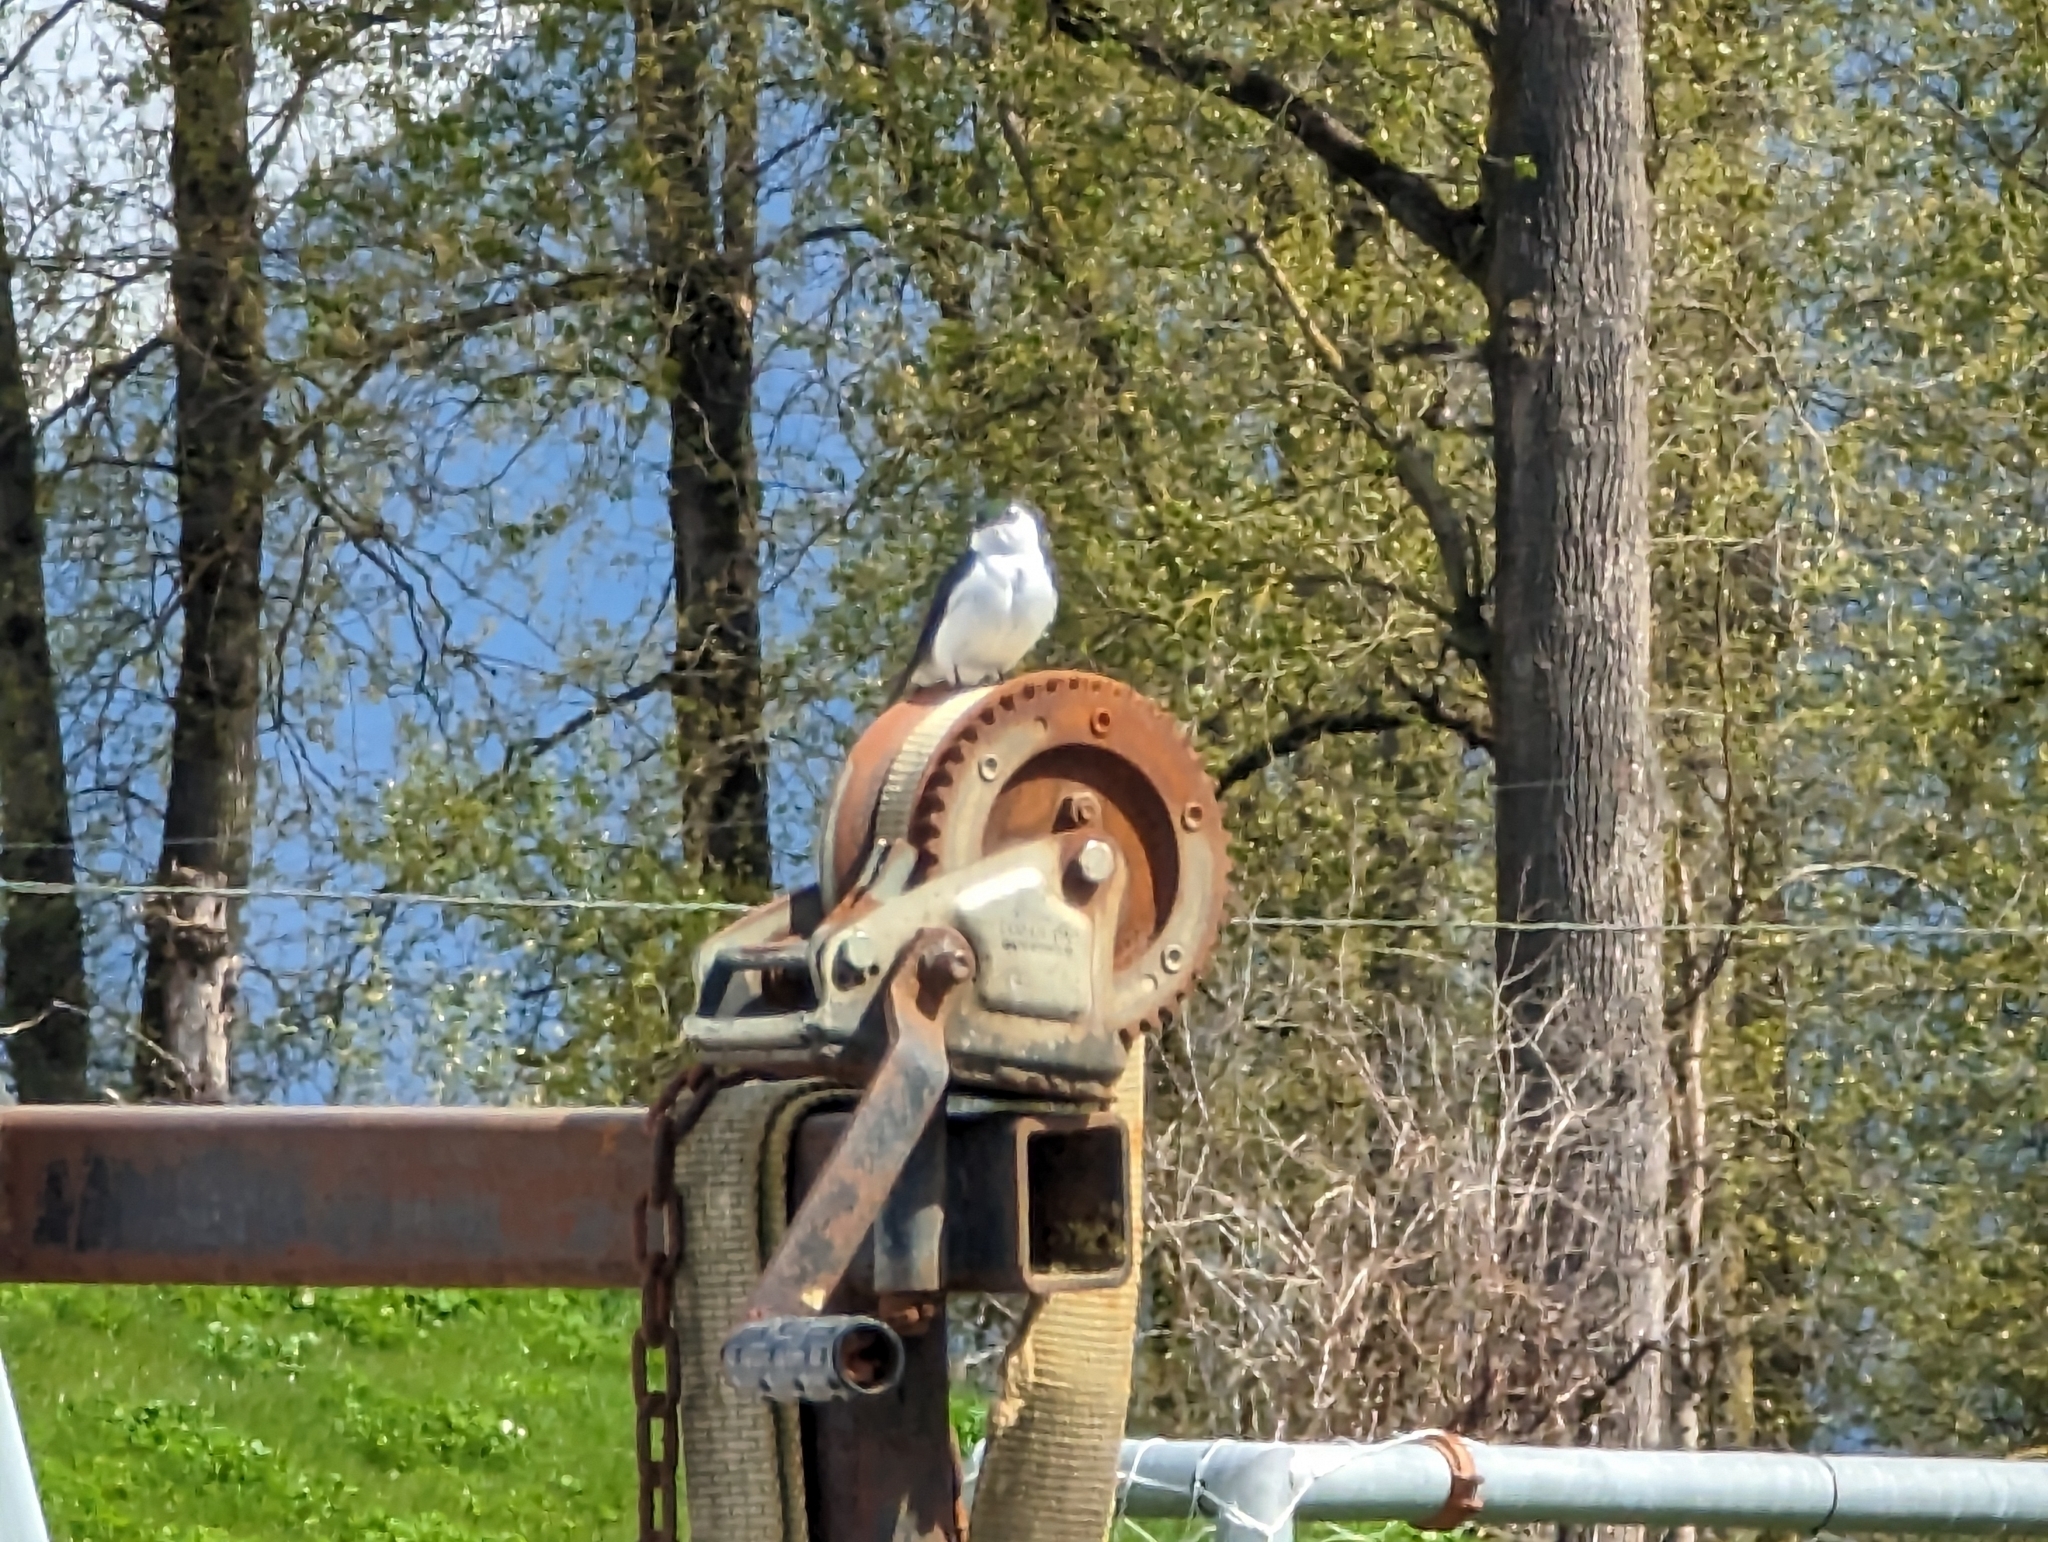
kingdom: Animalia
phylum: Chordata
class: Aves
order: Passeriformes
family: Hirundinidae
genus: Tachycineta
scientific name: Tachycineta thalassina
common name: Violet-green swallow
